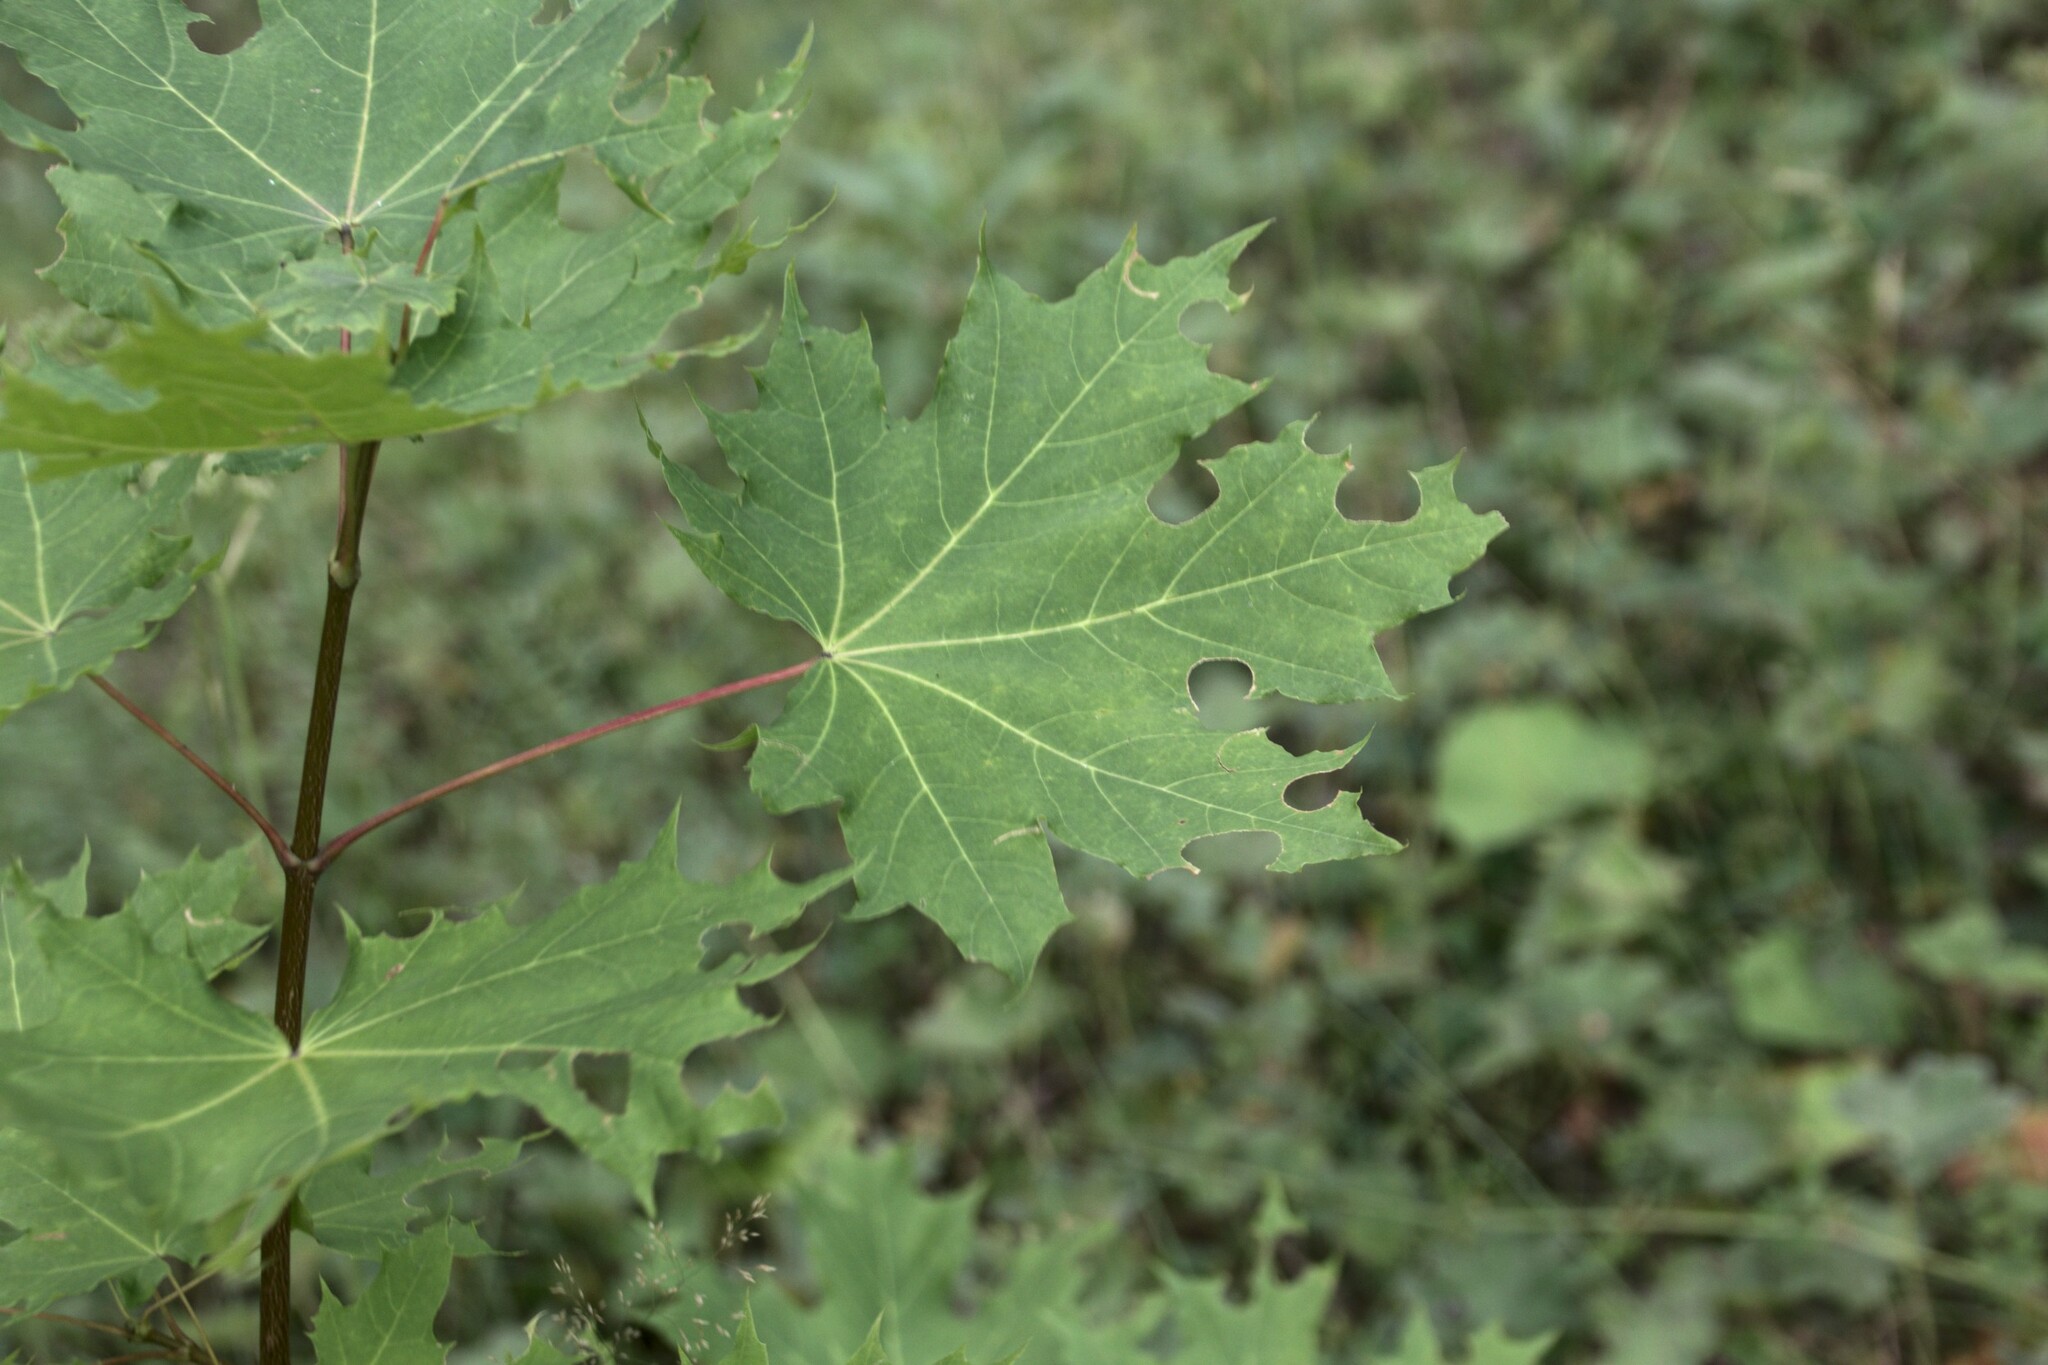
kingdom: Plantae
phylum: Tracheophyta
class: Magnoliopsida
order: Sapindales
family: Sapindaceae
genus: Acer
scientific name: Acer platanoides
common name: Norway maple
